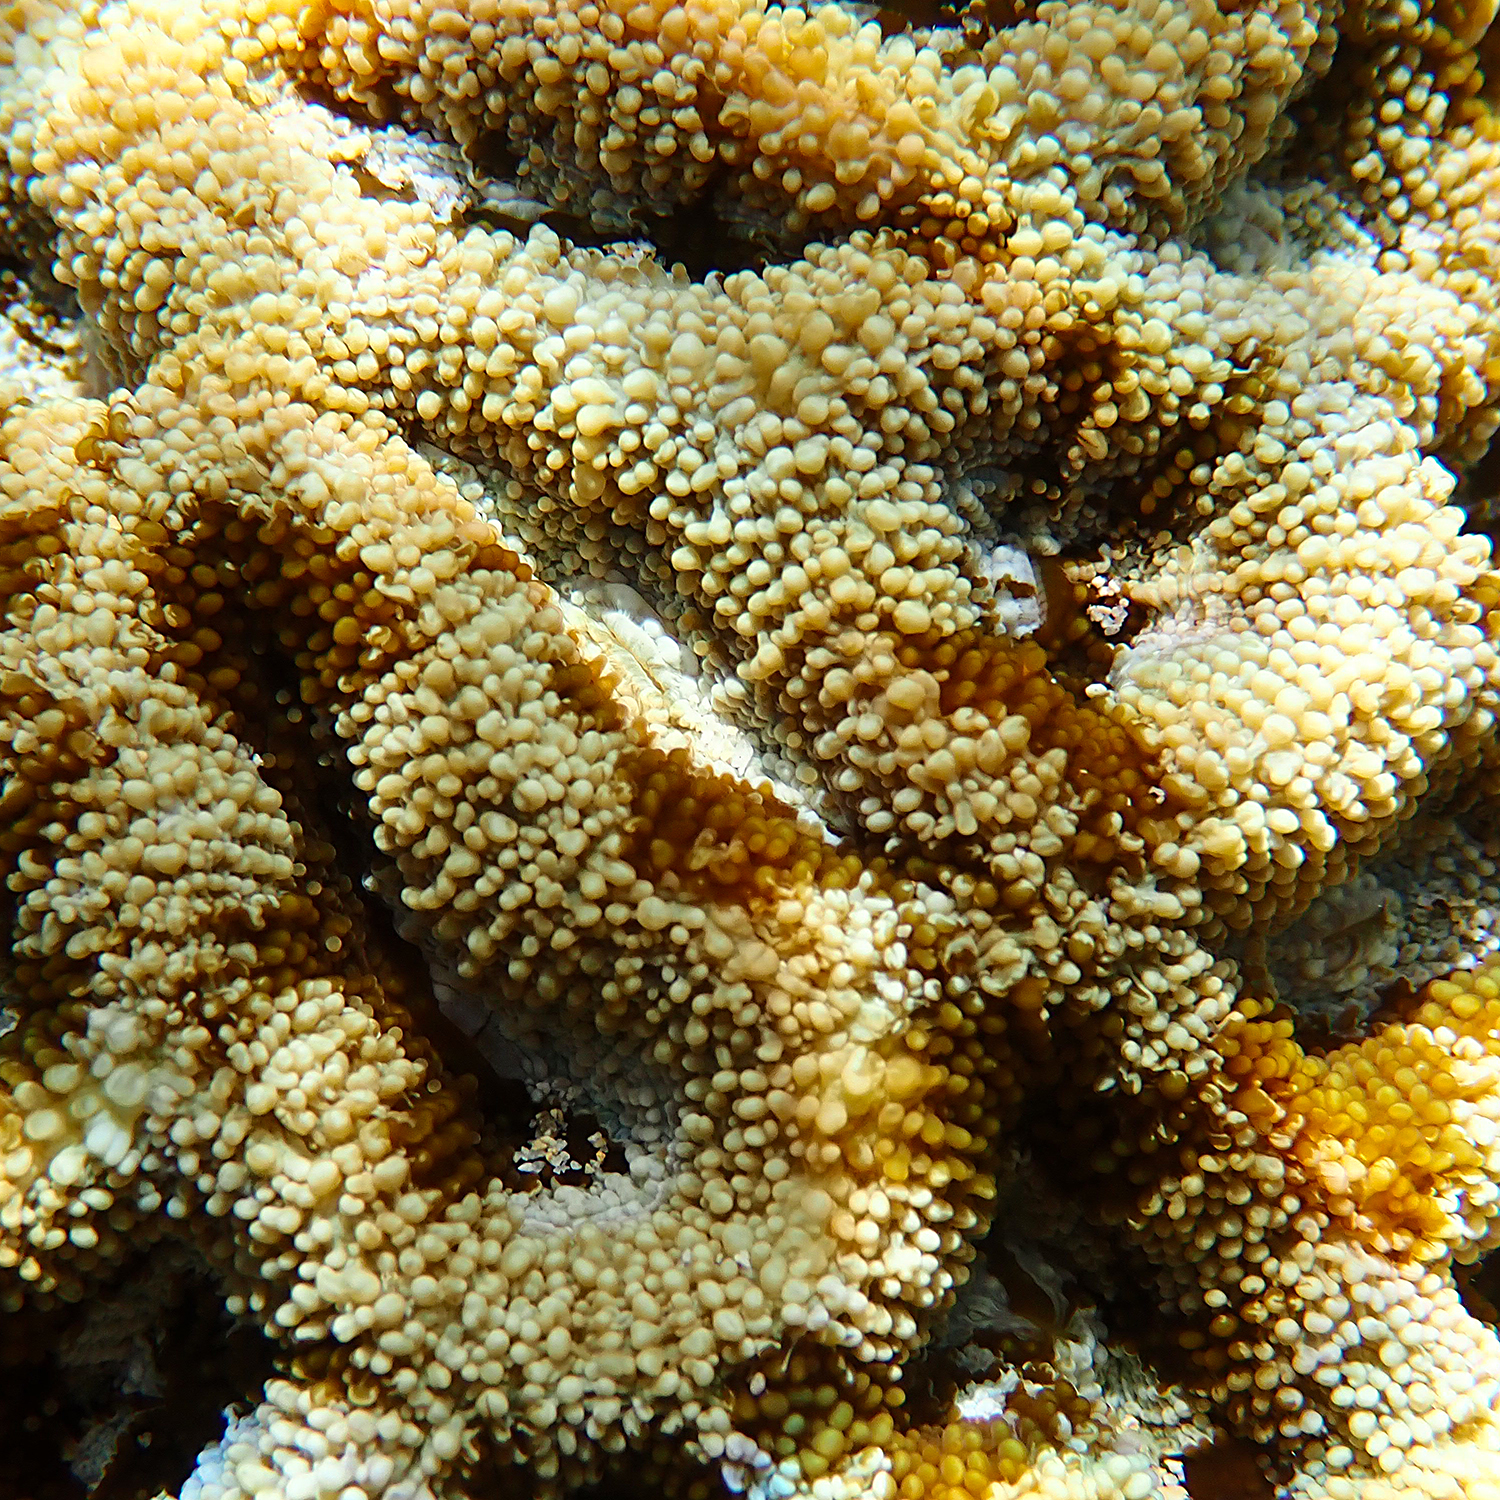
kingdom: Animalia
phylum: Cnidaria
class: Anthozoa
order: Scleractinia
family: Lobophylliidae
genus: Homophyllia
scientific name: Homophyllia bowerbanki
